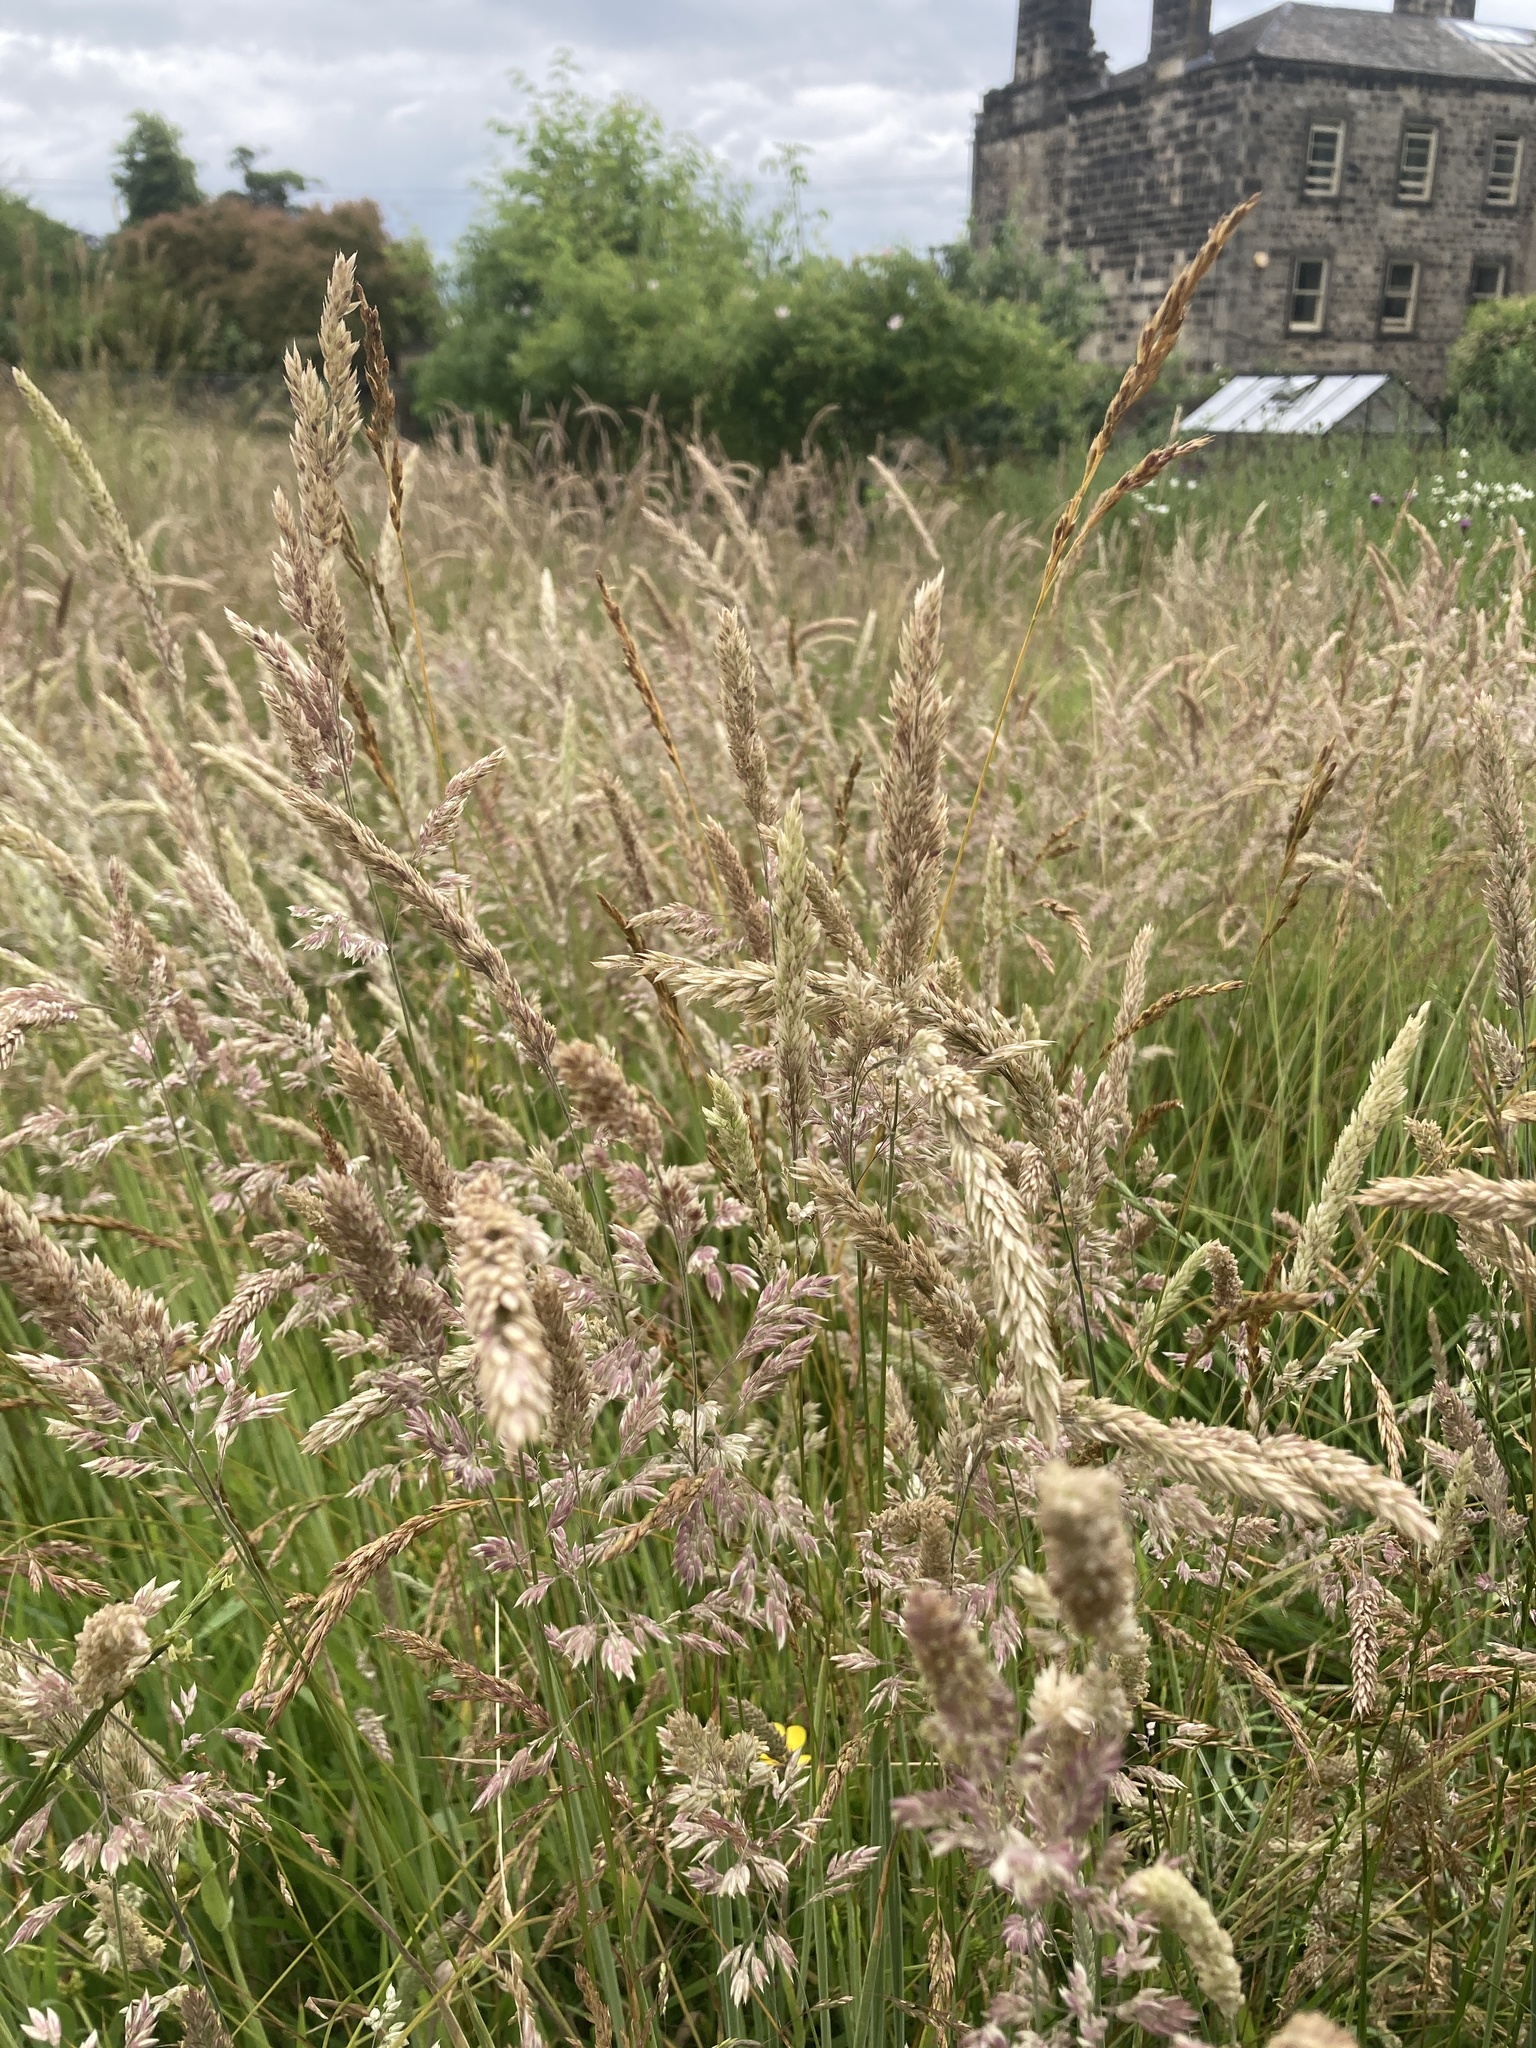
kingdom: Plantae
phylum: Tracheophyta
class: Liliopsida
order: Poales
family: Poaceae
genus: Holcus
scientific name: Holcus lanatus
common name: Yorkshire-fog
